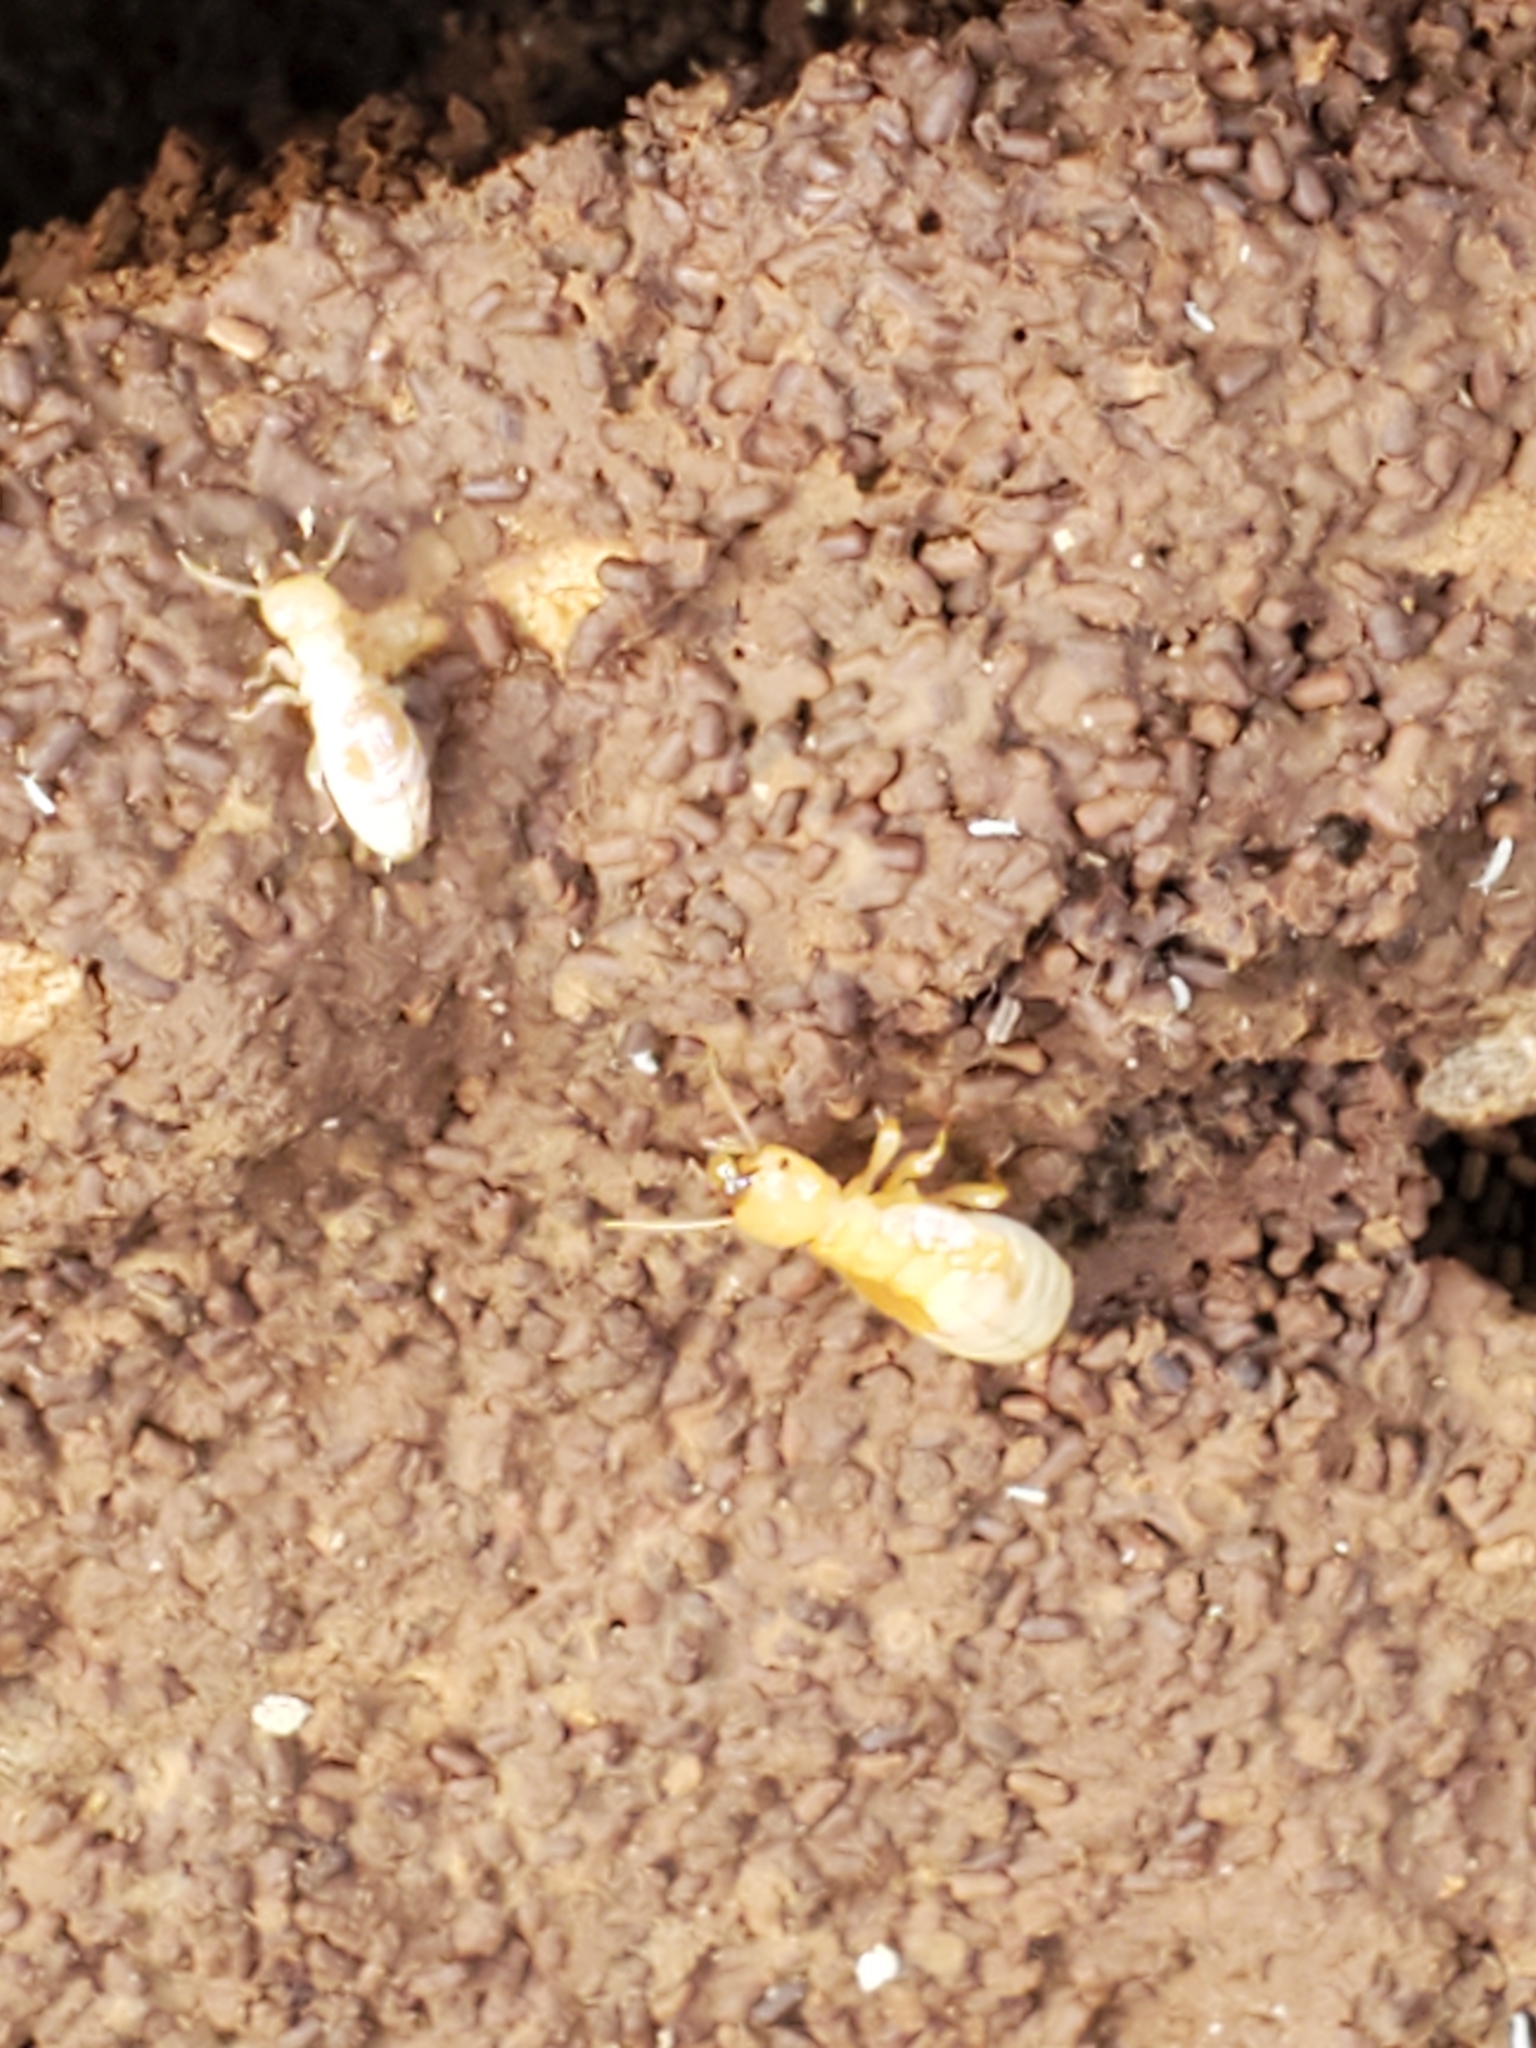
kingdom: Animalia
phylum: Arthropoda
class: Insecta
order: Blattodea
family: Archotermopsidae
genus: Zootermopsis
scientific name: Zootermopsis
